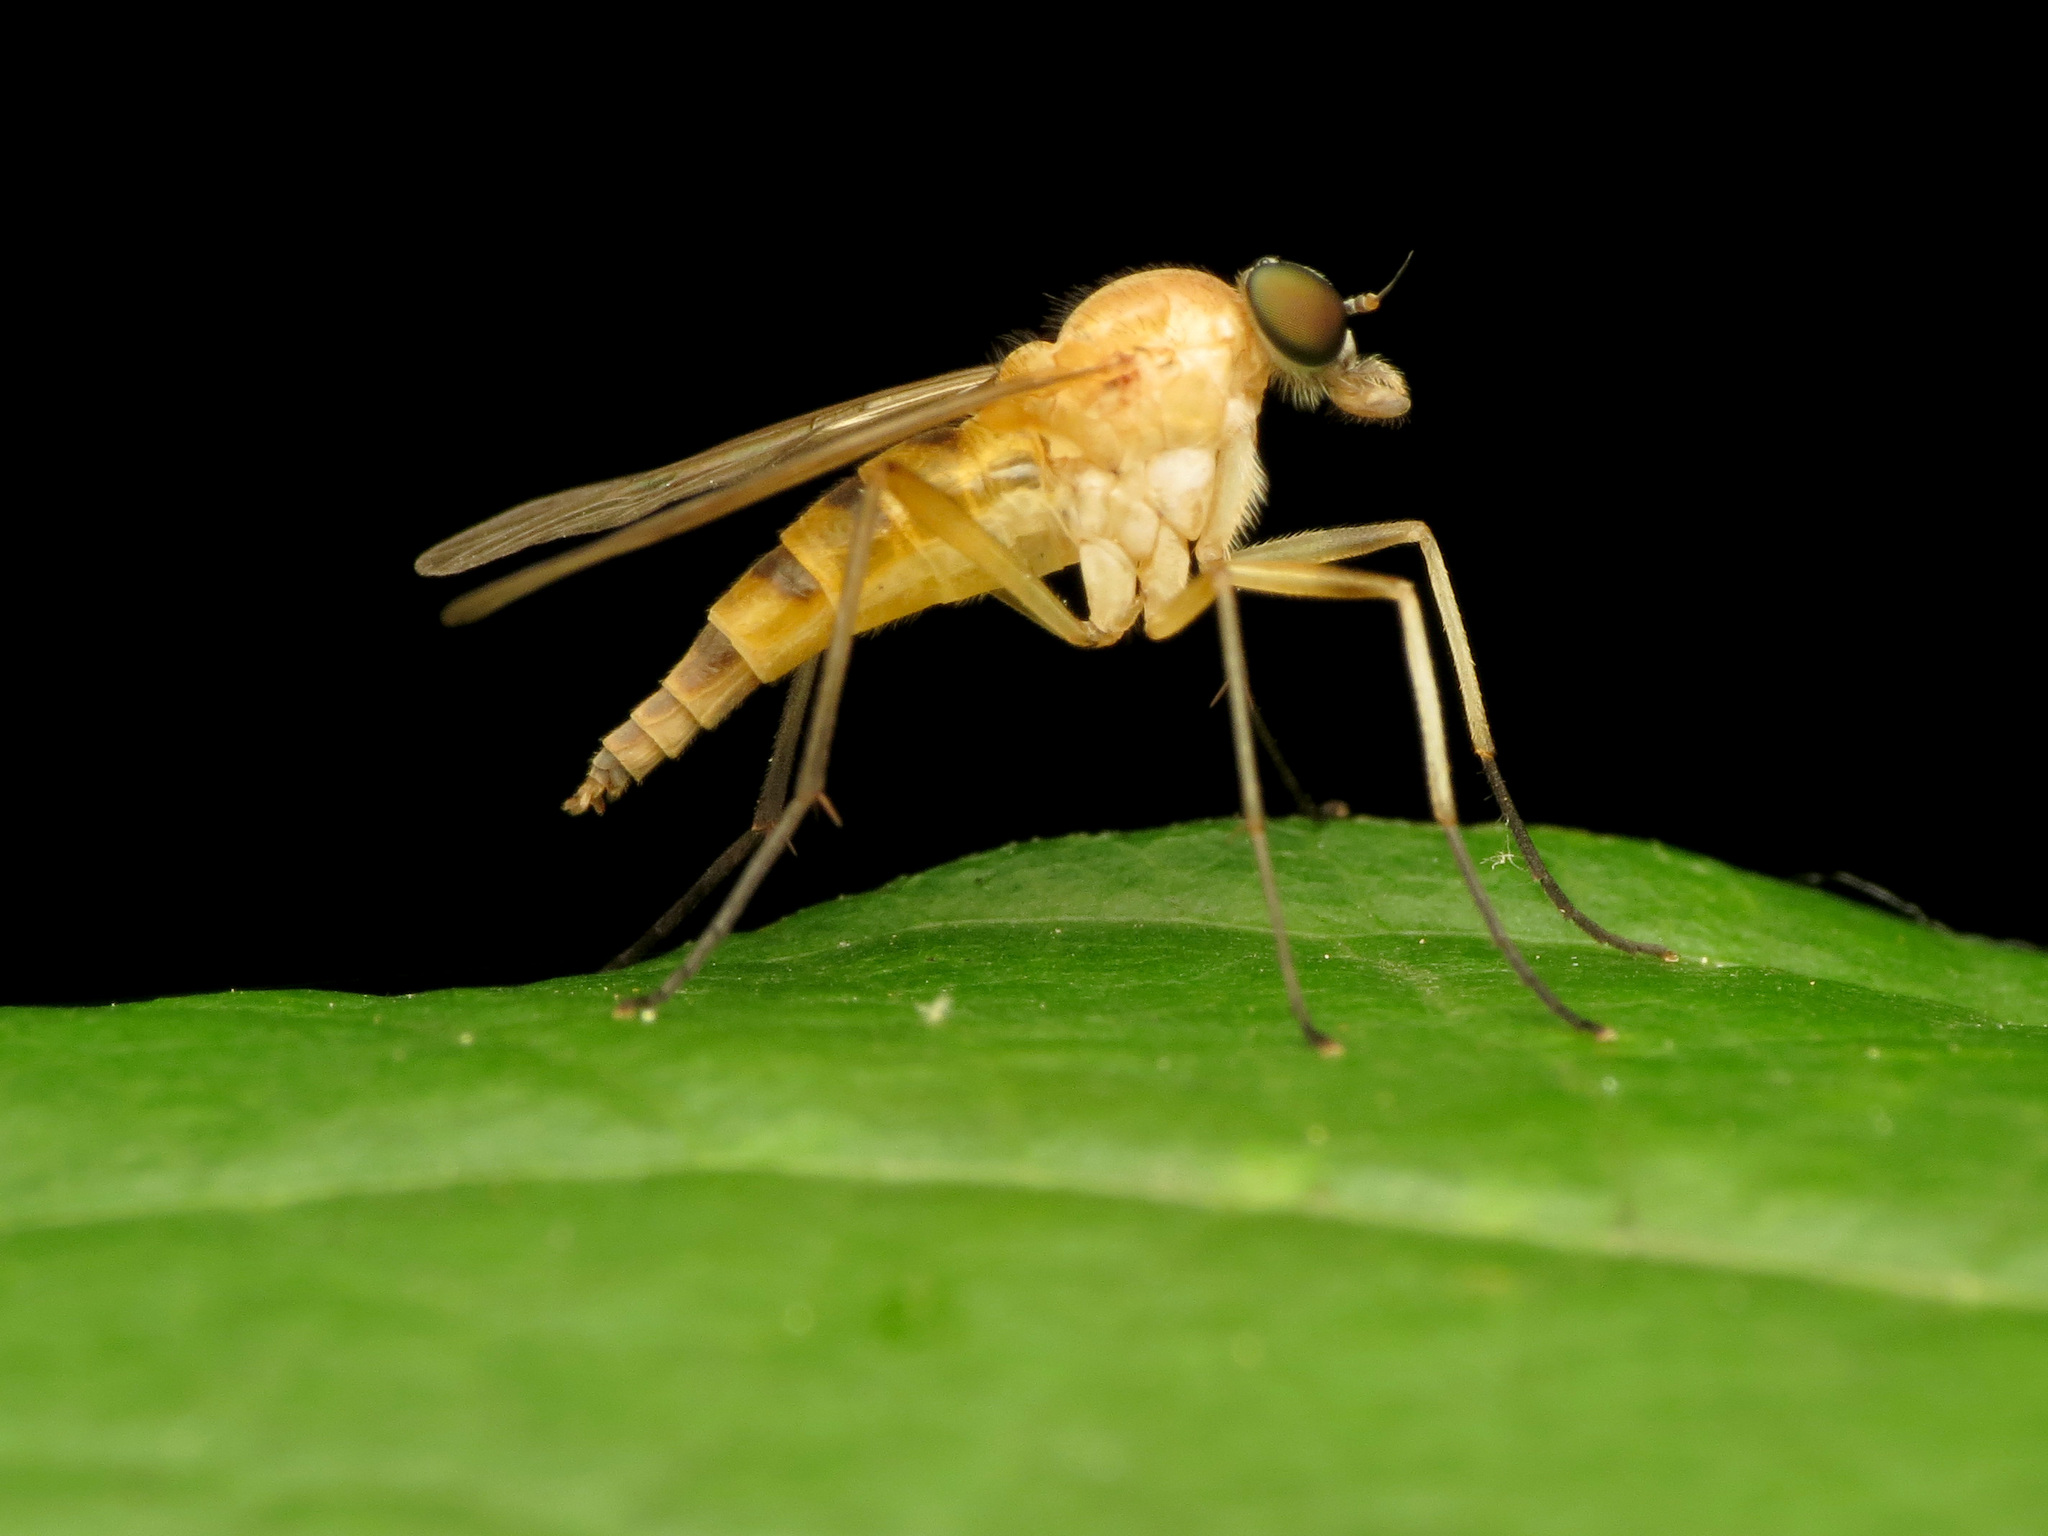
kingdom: Animalia
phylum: Arthropoda
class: Insecta
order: Diptera
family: Rhagionidae
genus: Rhagio
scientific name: Rhagio hirta
